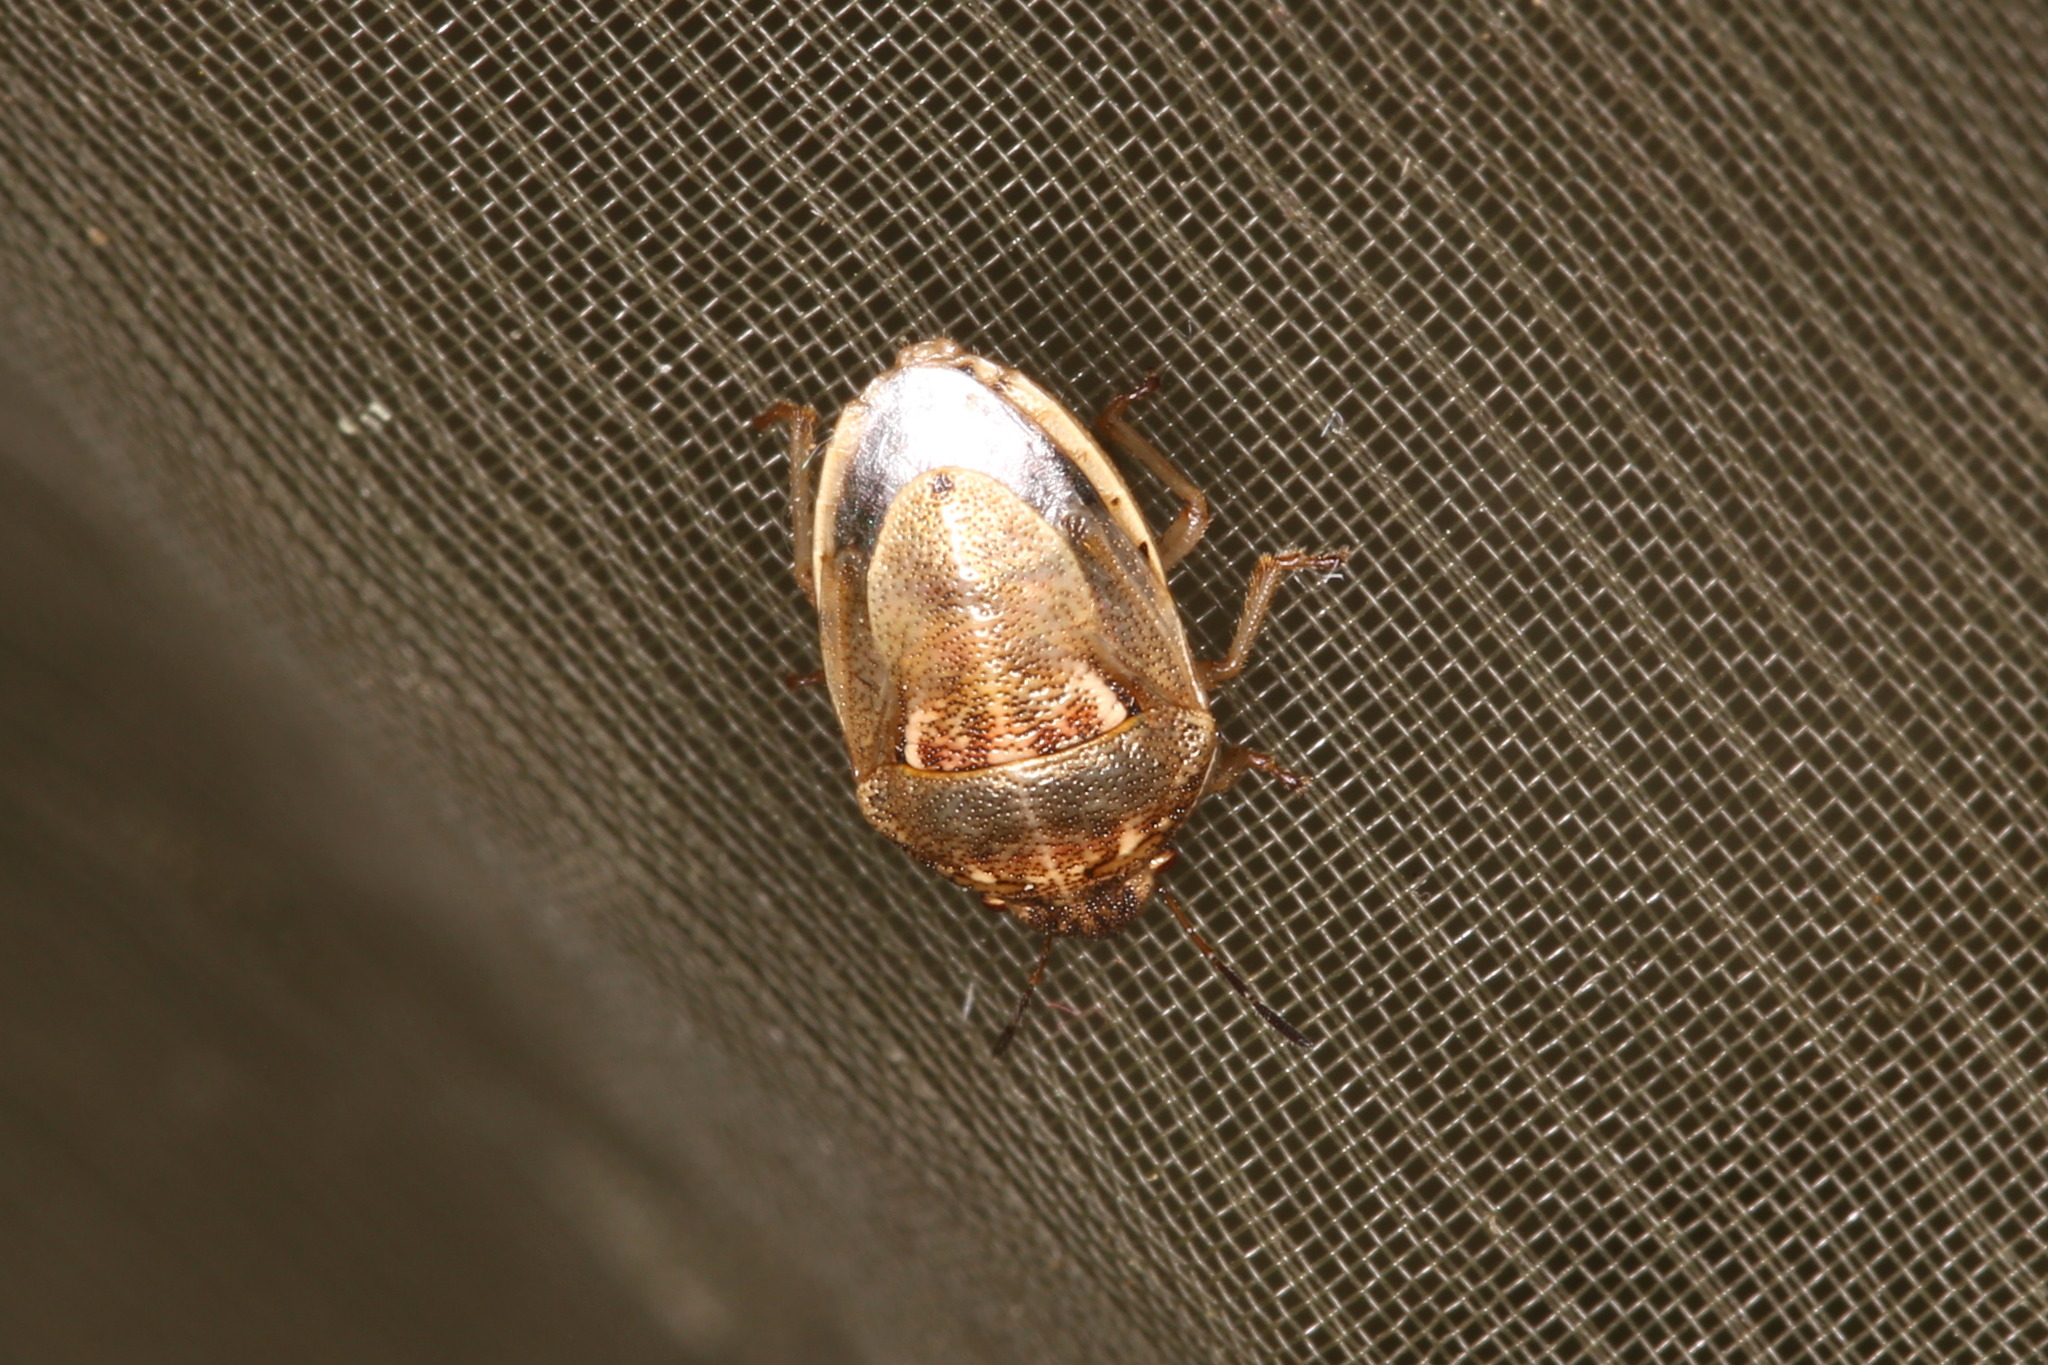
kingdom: Animalia
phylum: Arthropoda
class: Insecta
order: Hemiptera
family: Pentatomidae
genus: Neottiglossa
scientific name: Neottiglossa leporina
